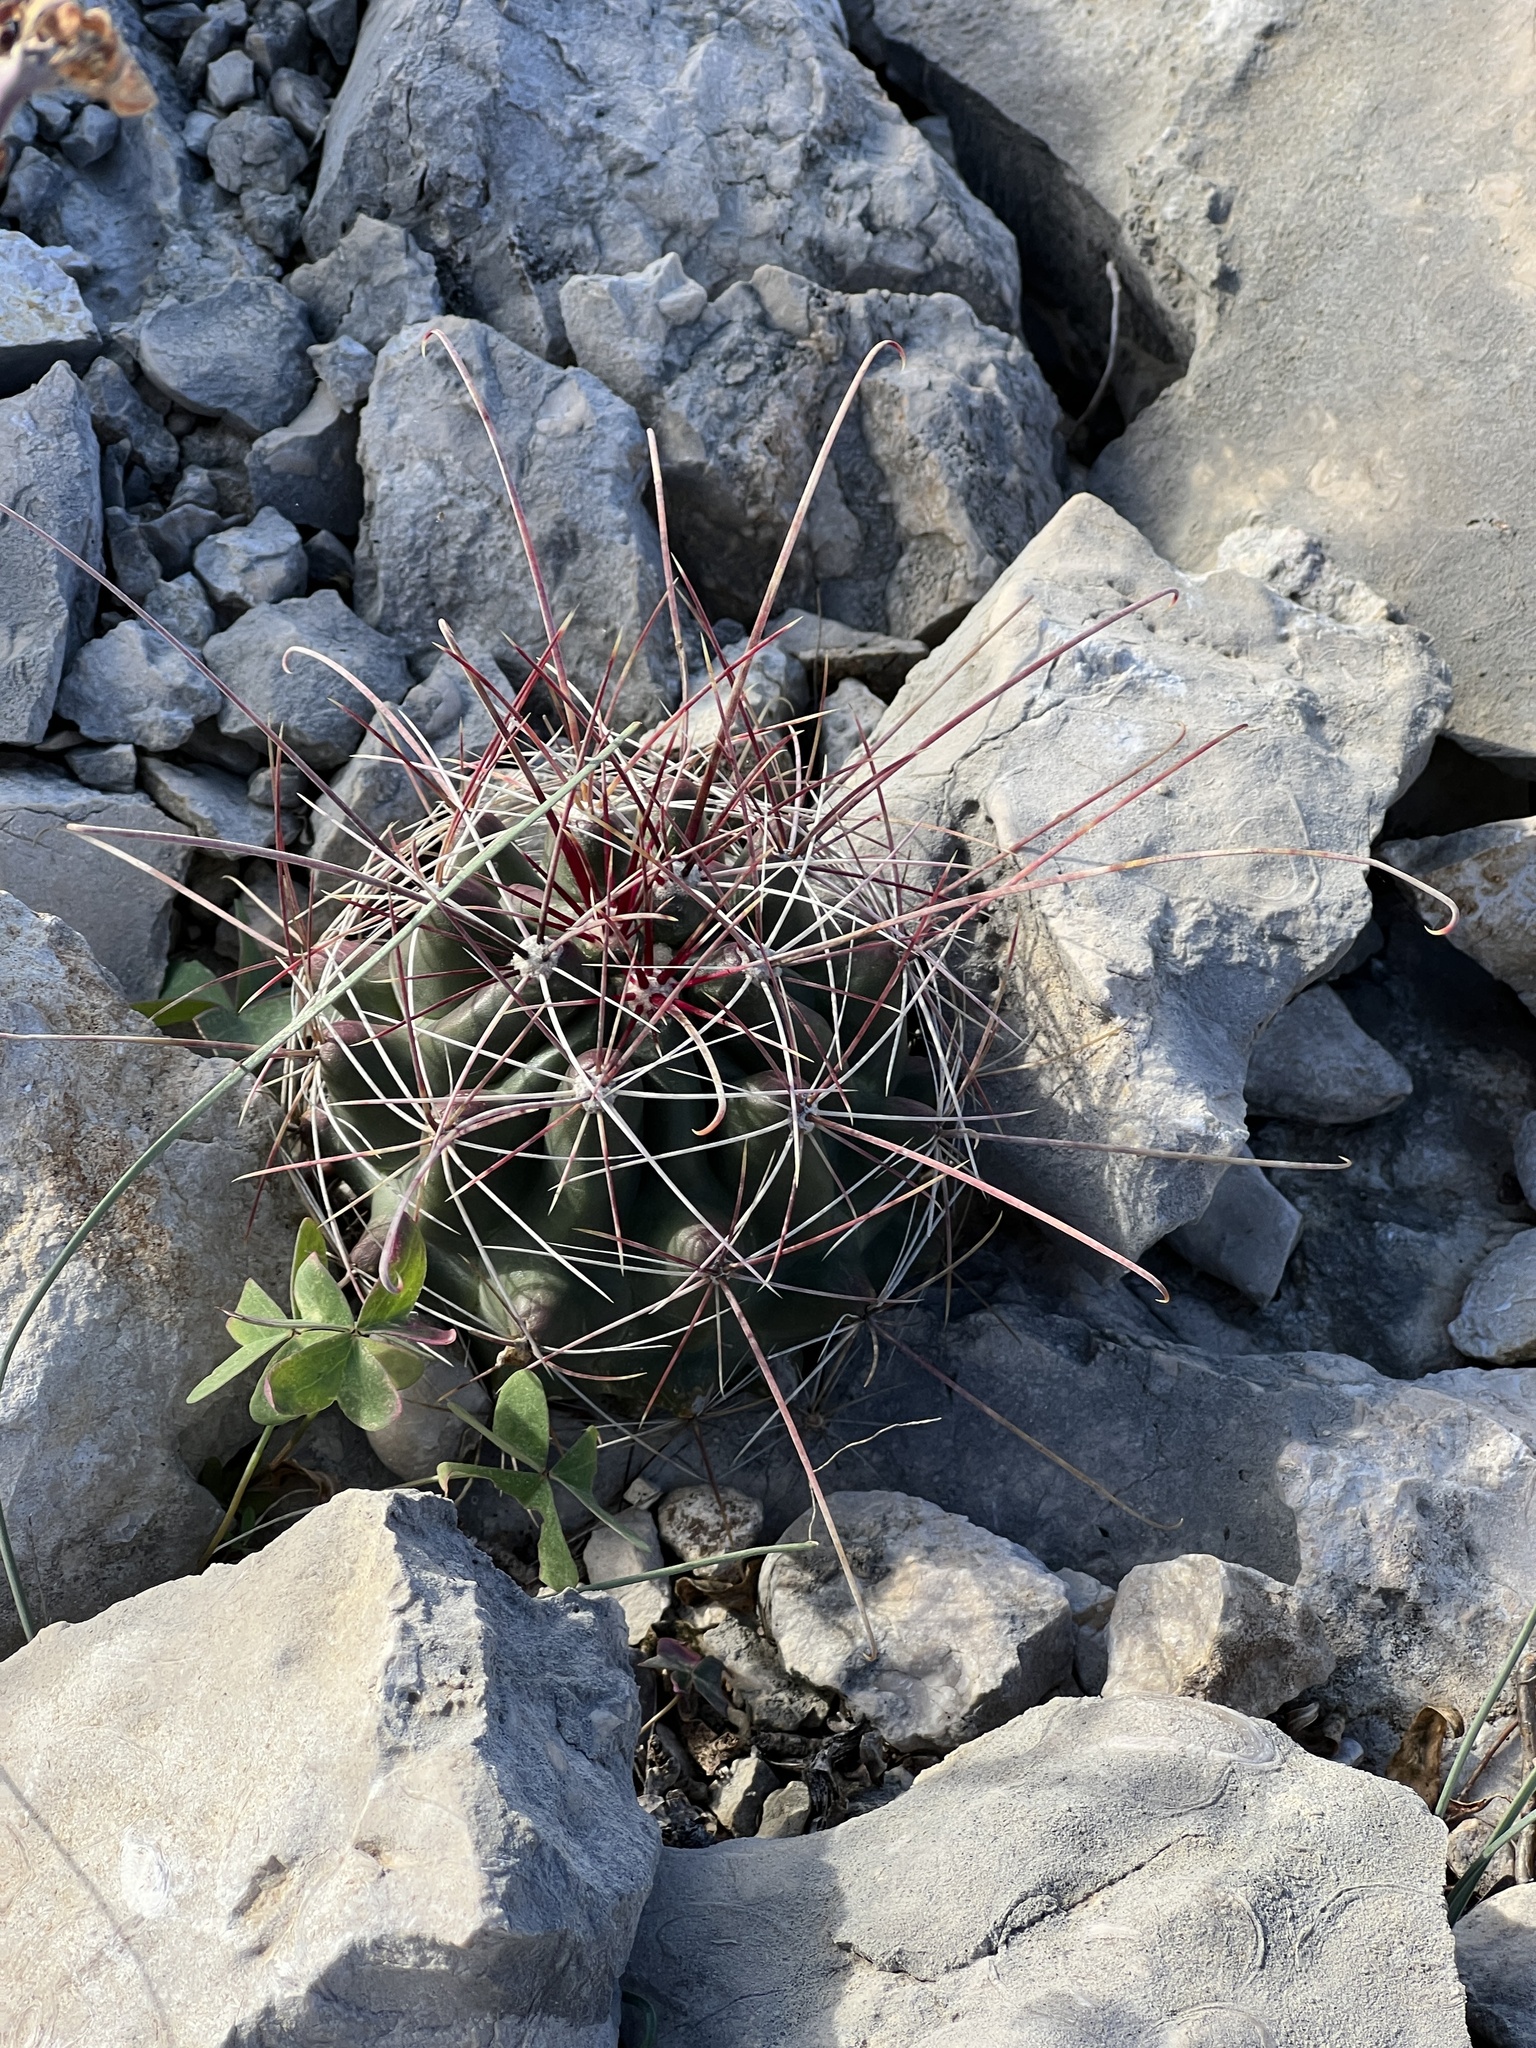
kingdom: Plantae
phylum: Tracheophyta
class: Magnoliopsida
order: Caryophyllales
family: Cactaceae
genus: Bisnaga
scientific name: Bisnaga hamatacantha
